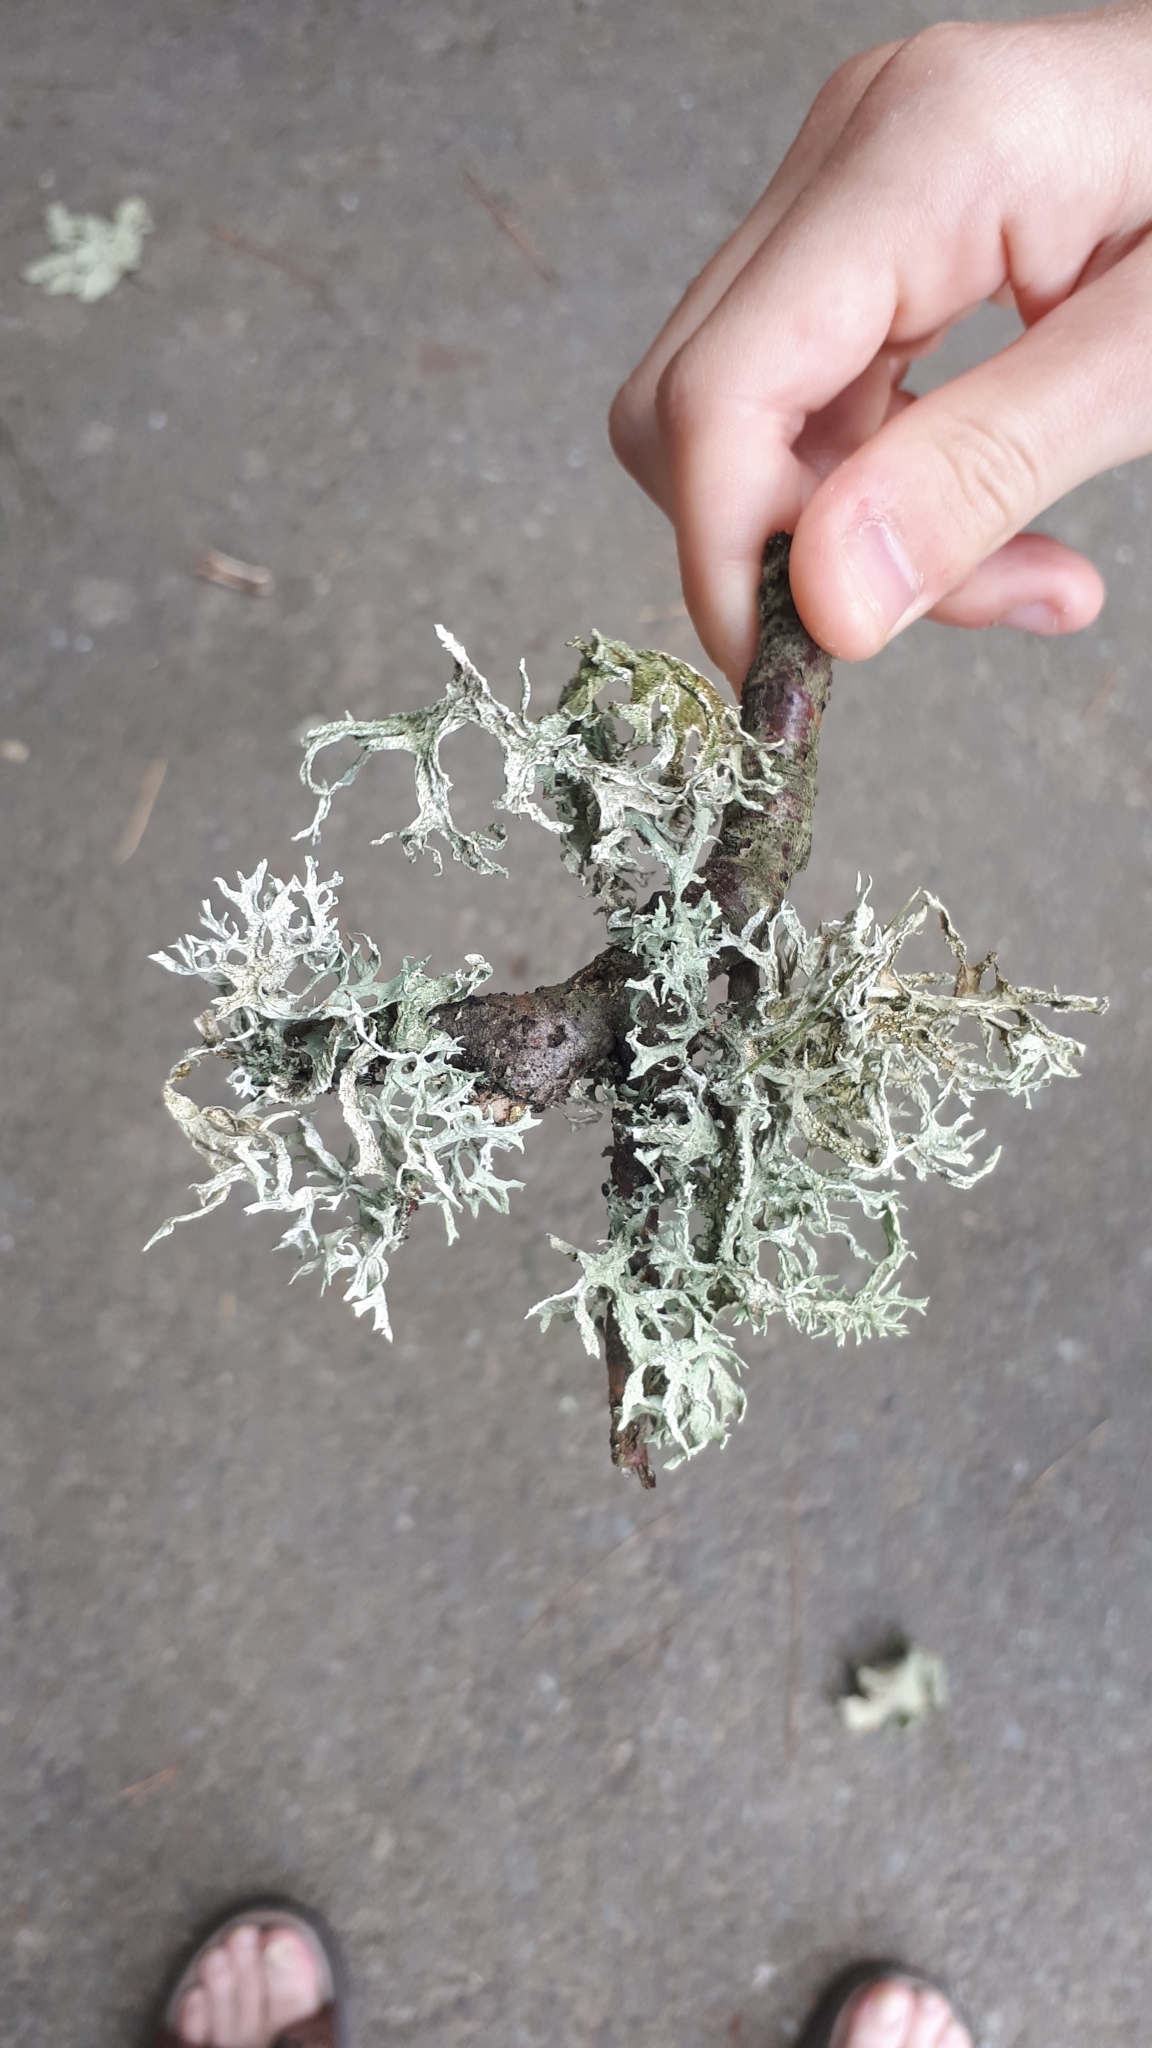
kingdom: Fungi
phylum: Ascomycota
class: Lecanoromycetes
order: Lecanorales
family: Parmeliaceae
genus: Evernia
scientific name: Evernia prunastri
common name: Oak moss
